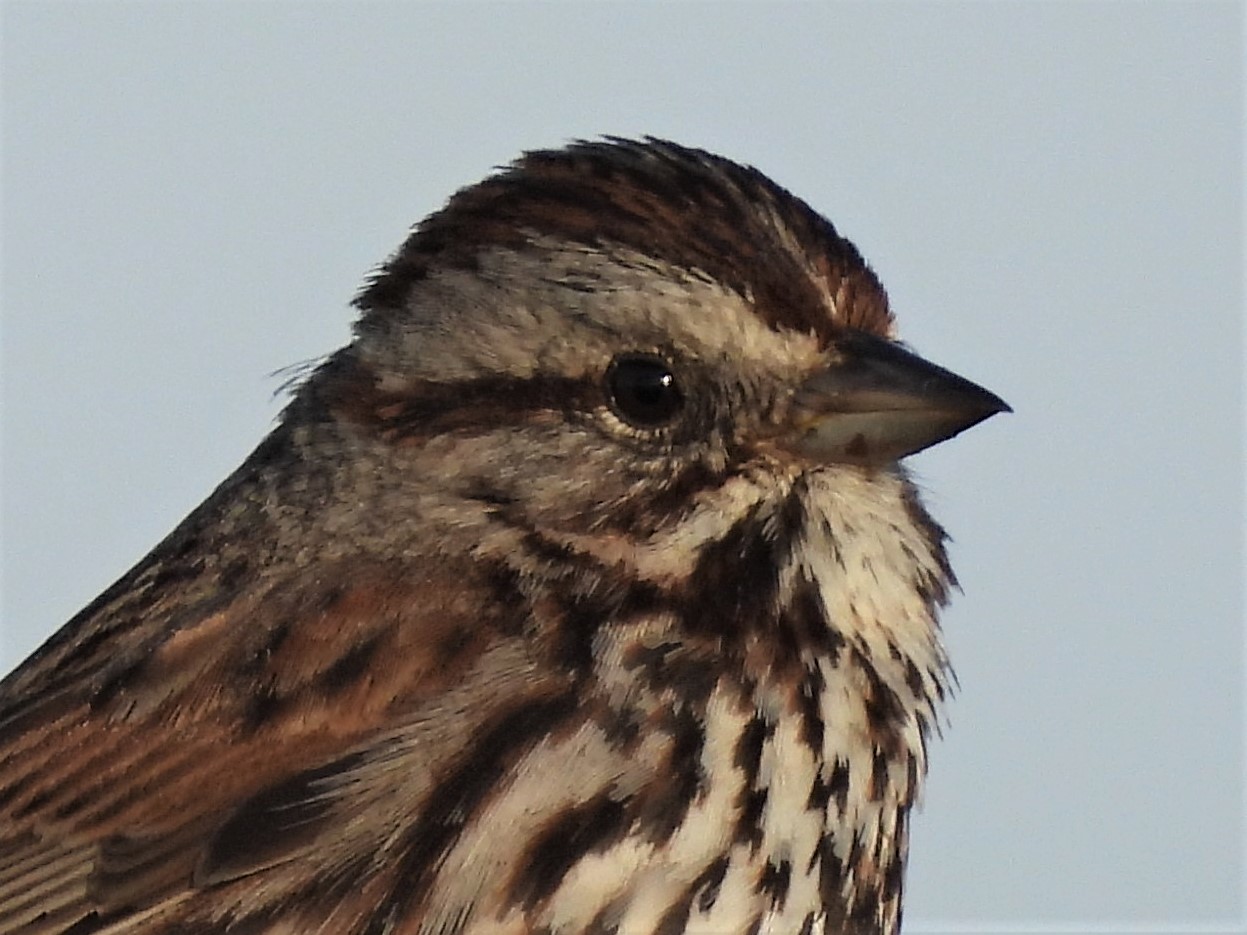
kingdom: Animalia
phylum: Chordata
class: Aves
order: Passeriformes
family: Passerellidae
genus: Melospiza
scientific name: Melospiza melodia
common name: Song sparrow
